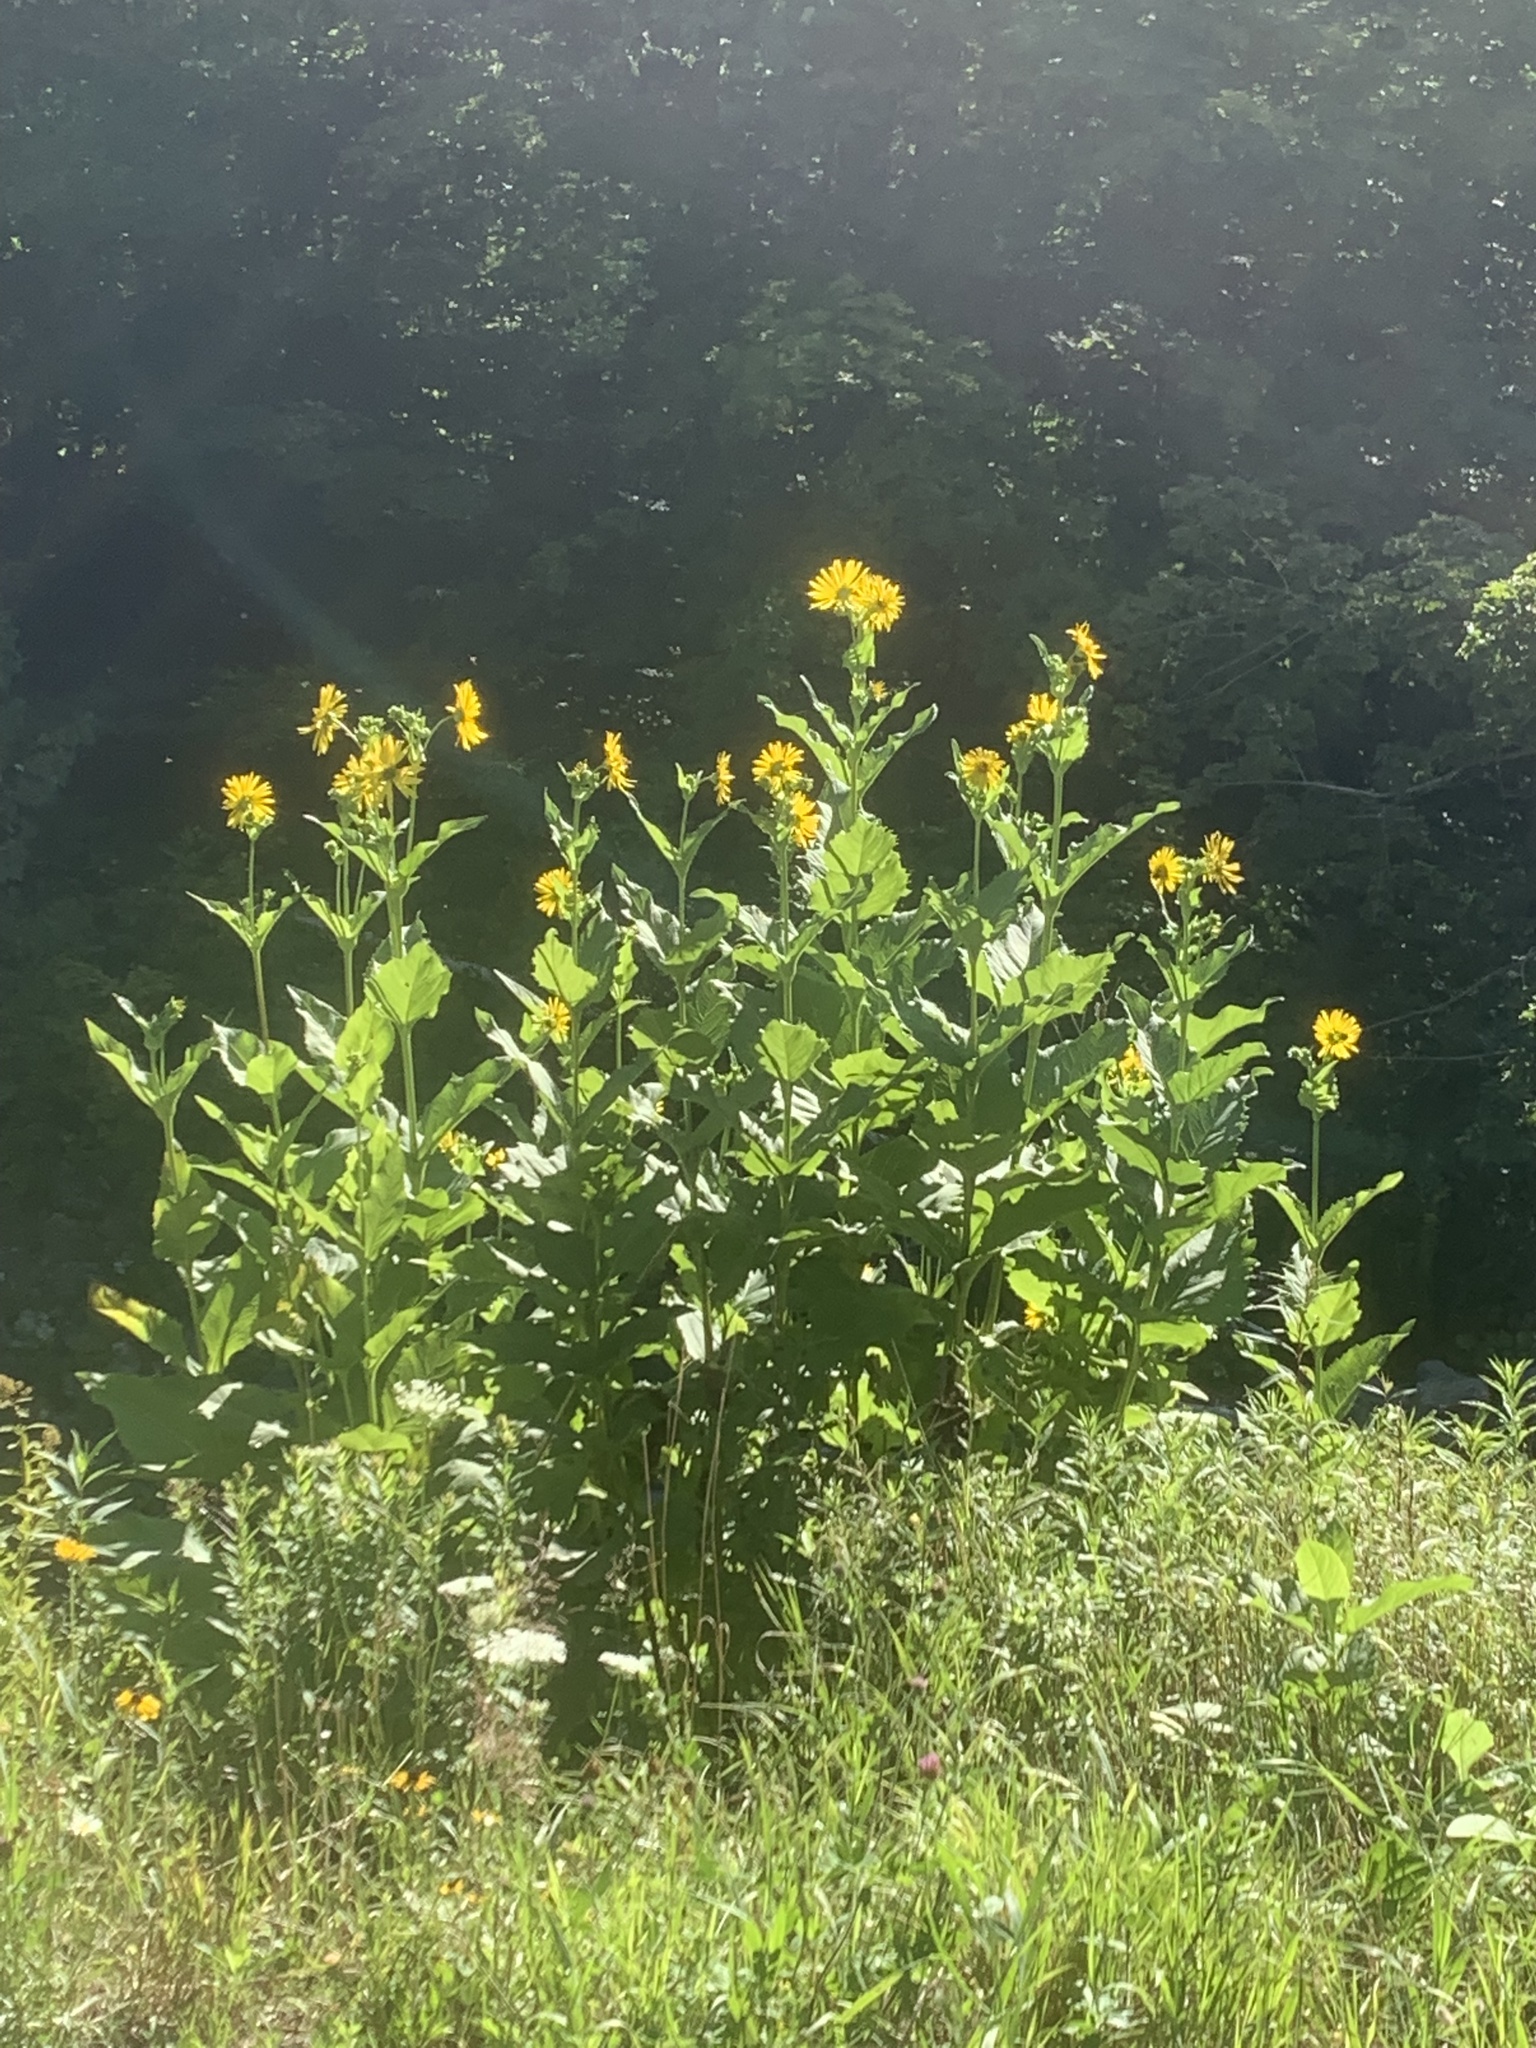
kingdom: Plantae
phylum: Tracheophyta
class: Magnoliopsida
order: Asterales
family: Asteraceae
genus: Silphium
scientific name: Silphium perfoliatum
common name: Cup-plant
